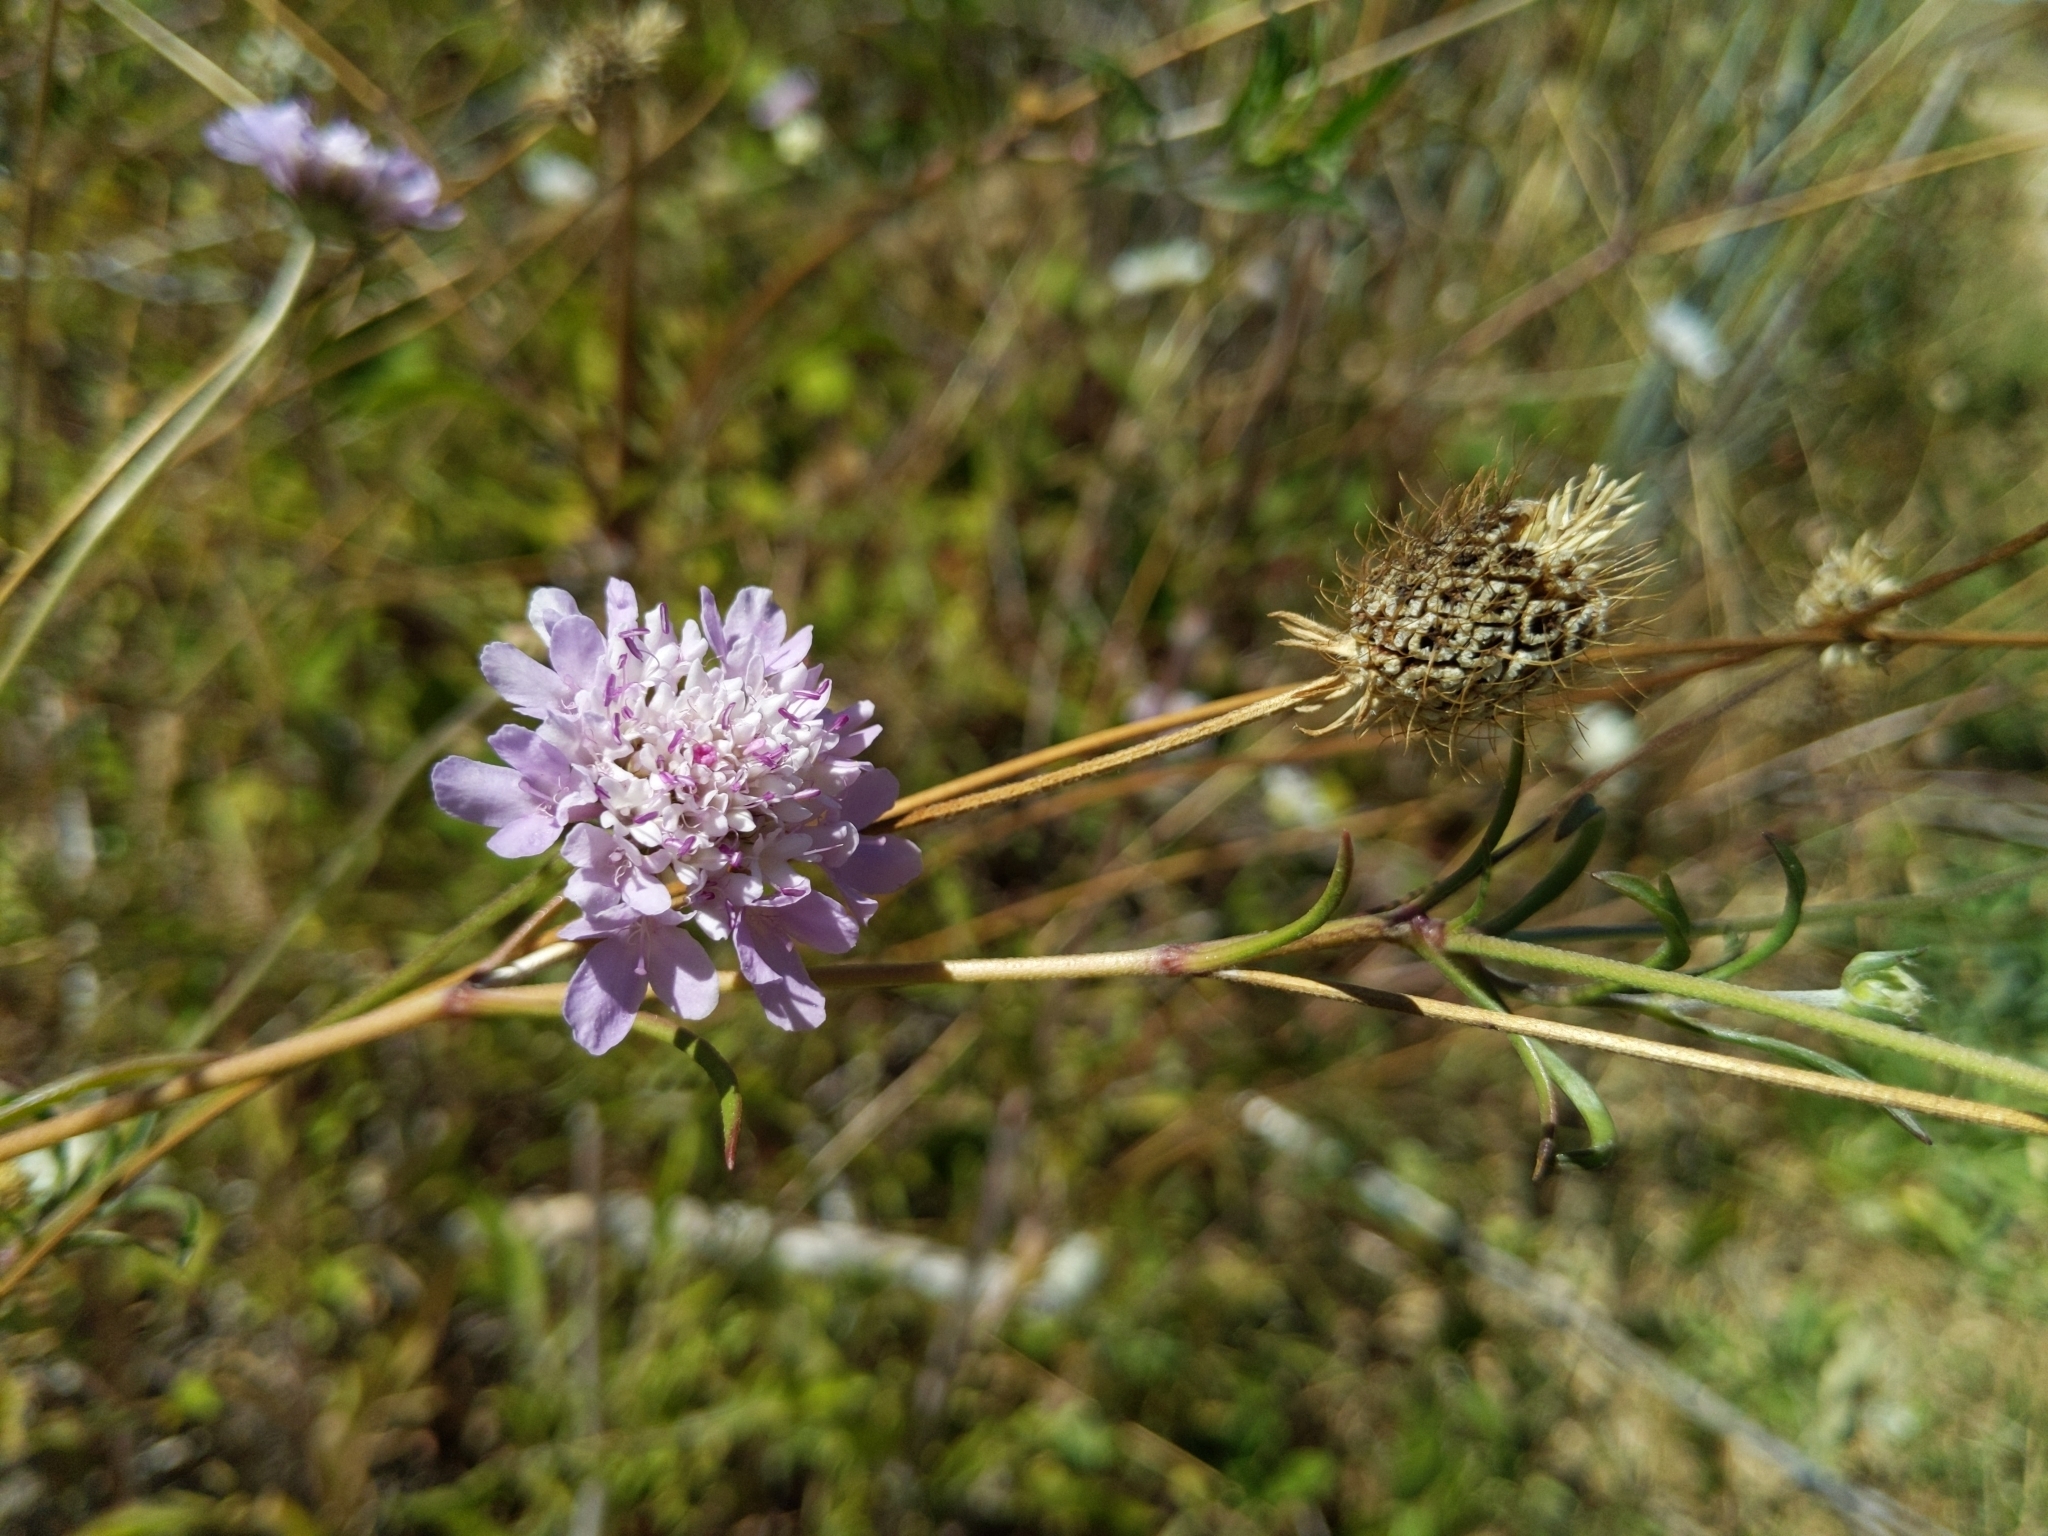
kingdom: Plantae
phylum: Tracheophyta
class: Magnoliopsida
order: Dipsacales
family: Caprifoliaceae
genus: Sixalix
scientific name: Sixalix atropurpurea
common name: Sweet scabious
